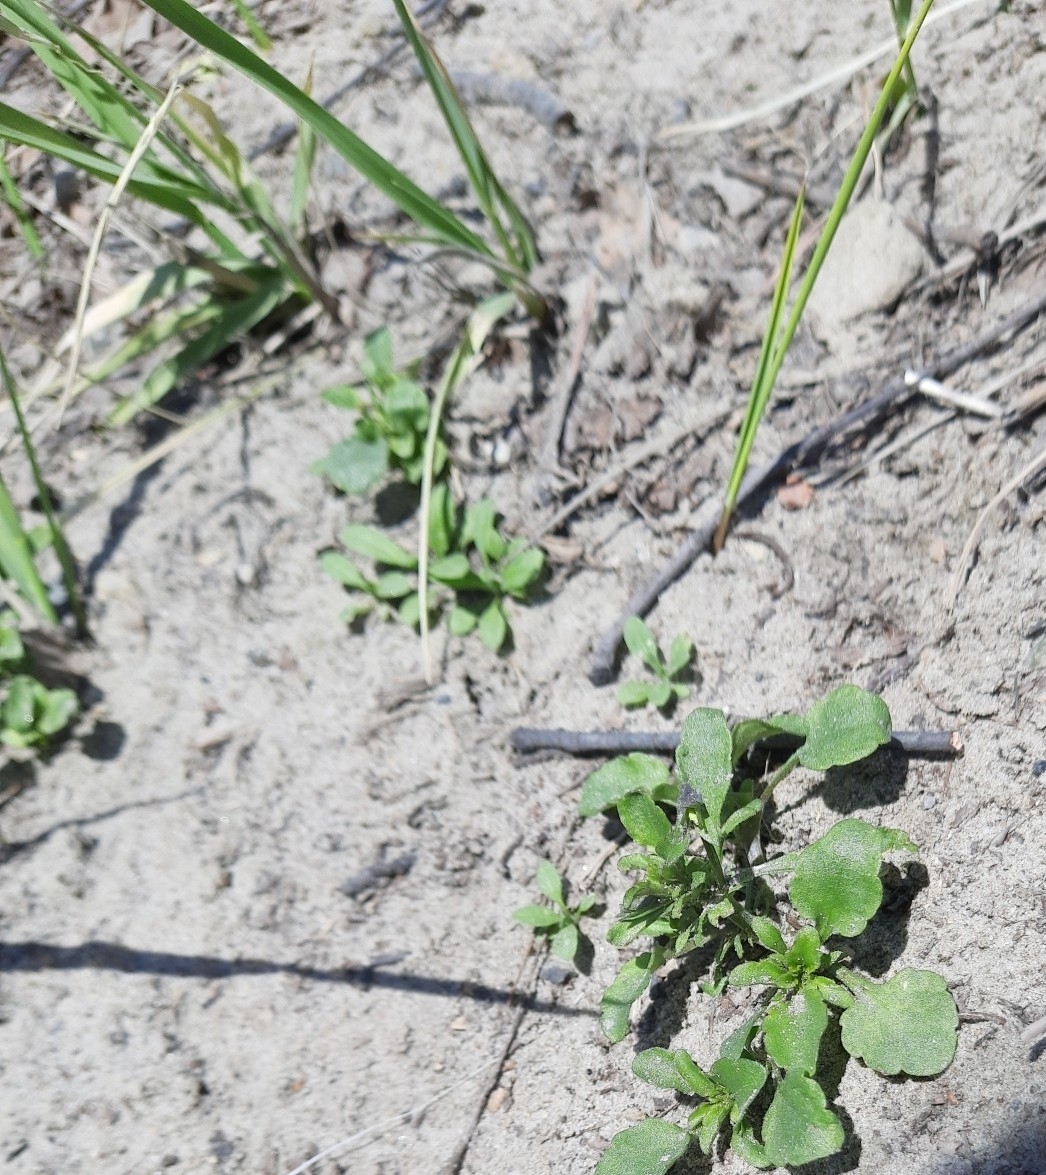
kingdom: Plantae
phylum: Tracheophyta
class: Magnoliopsida
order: Malpighiales
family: Violaceae
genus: Viola
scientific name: Viola arvensis
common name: Field pansy
